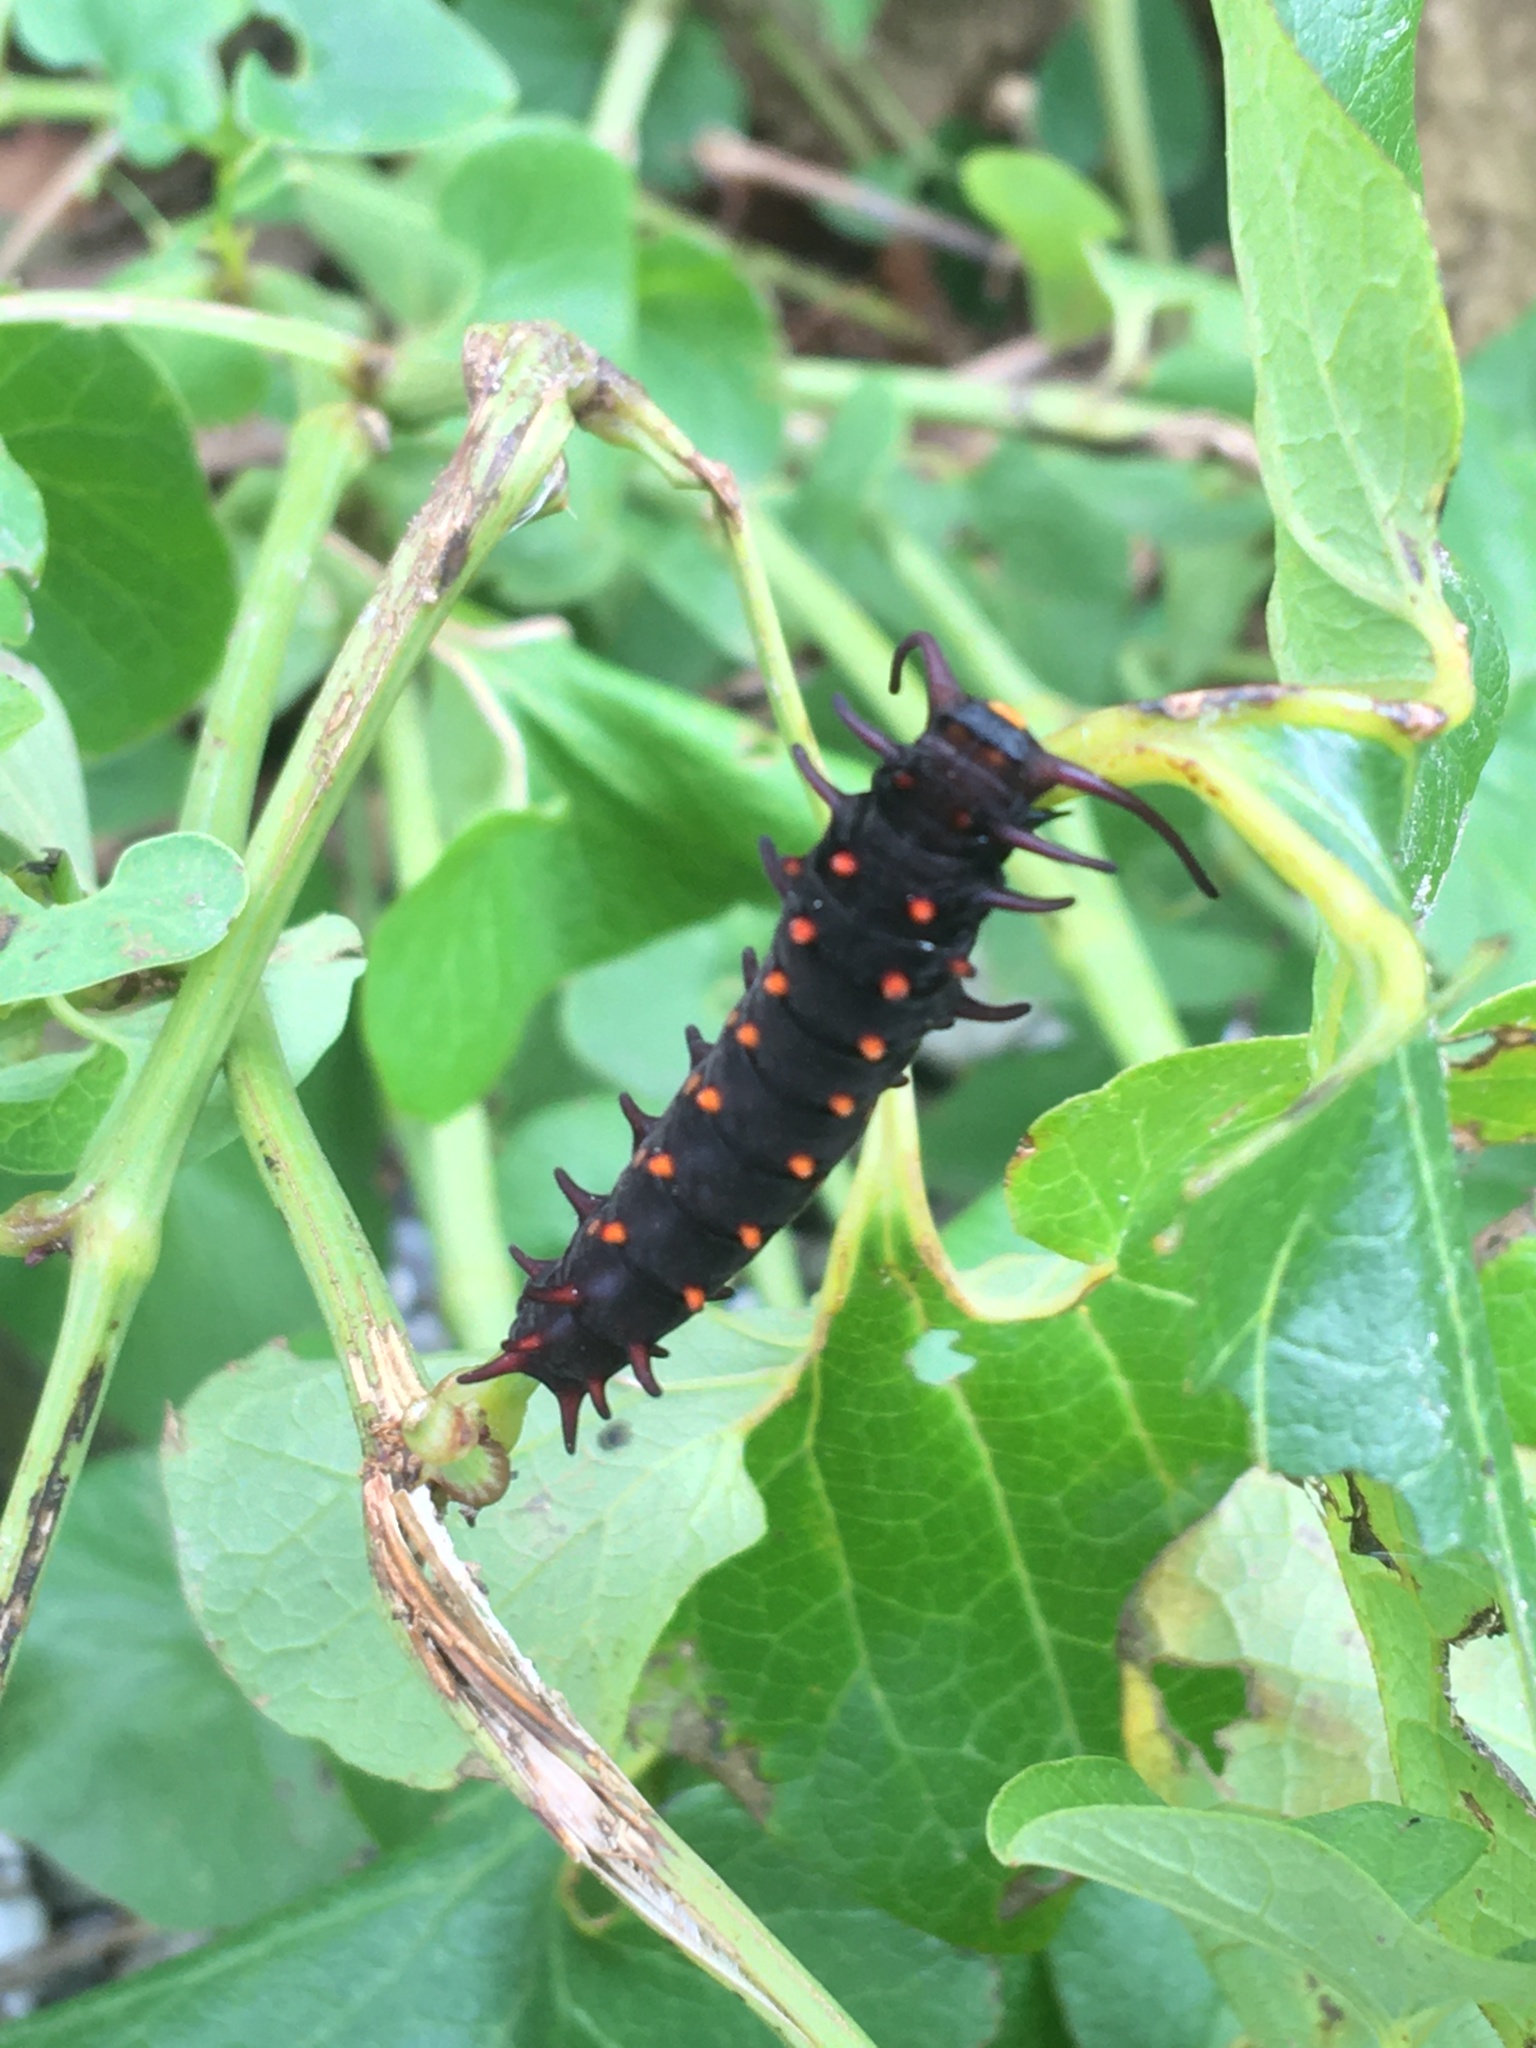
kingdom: Animalia
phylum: Arthropoda
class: Insecta
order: Lepidoptera
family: Papilionidae
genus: Battus
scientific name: Battus philenor
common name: Pipevine swallowtail
